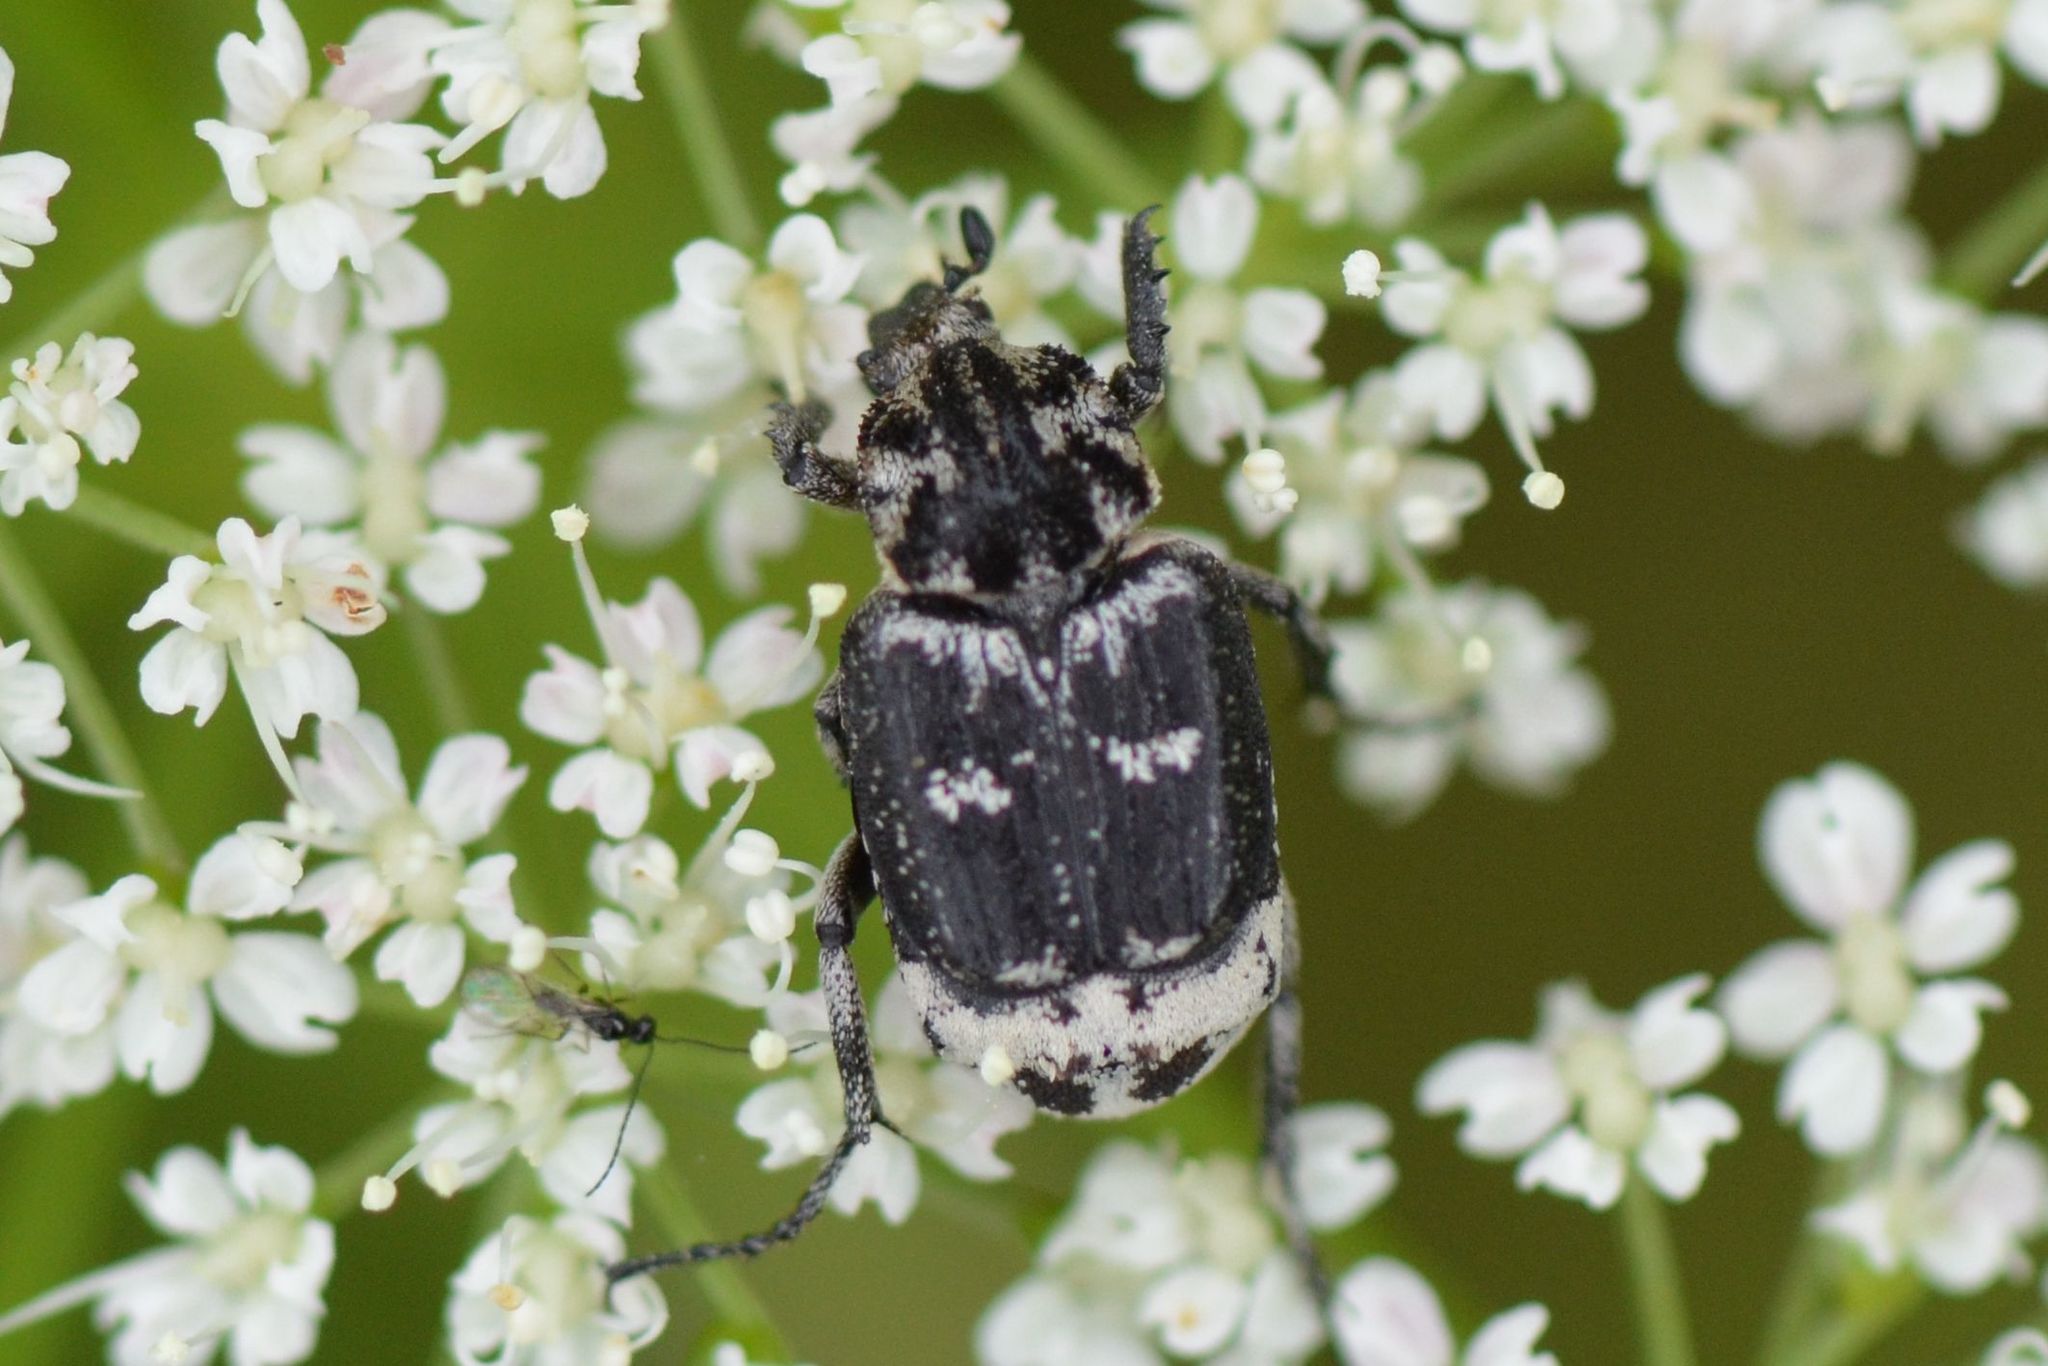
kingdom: Animalia
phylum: Arthropoda
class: Insecta
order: Coleoptera
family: Scarabaeidae
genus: Valgus
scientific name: Valgus hemipterus
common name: Bug flower chafer
